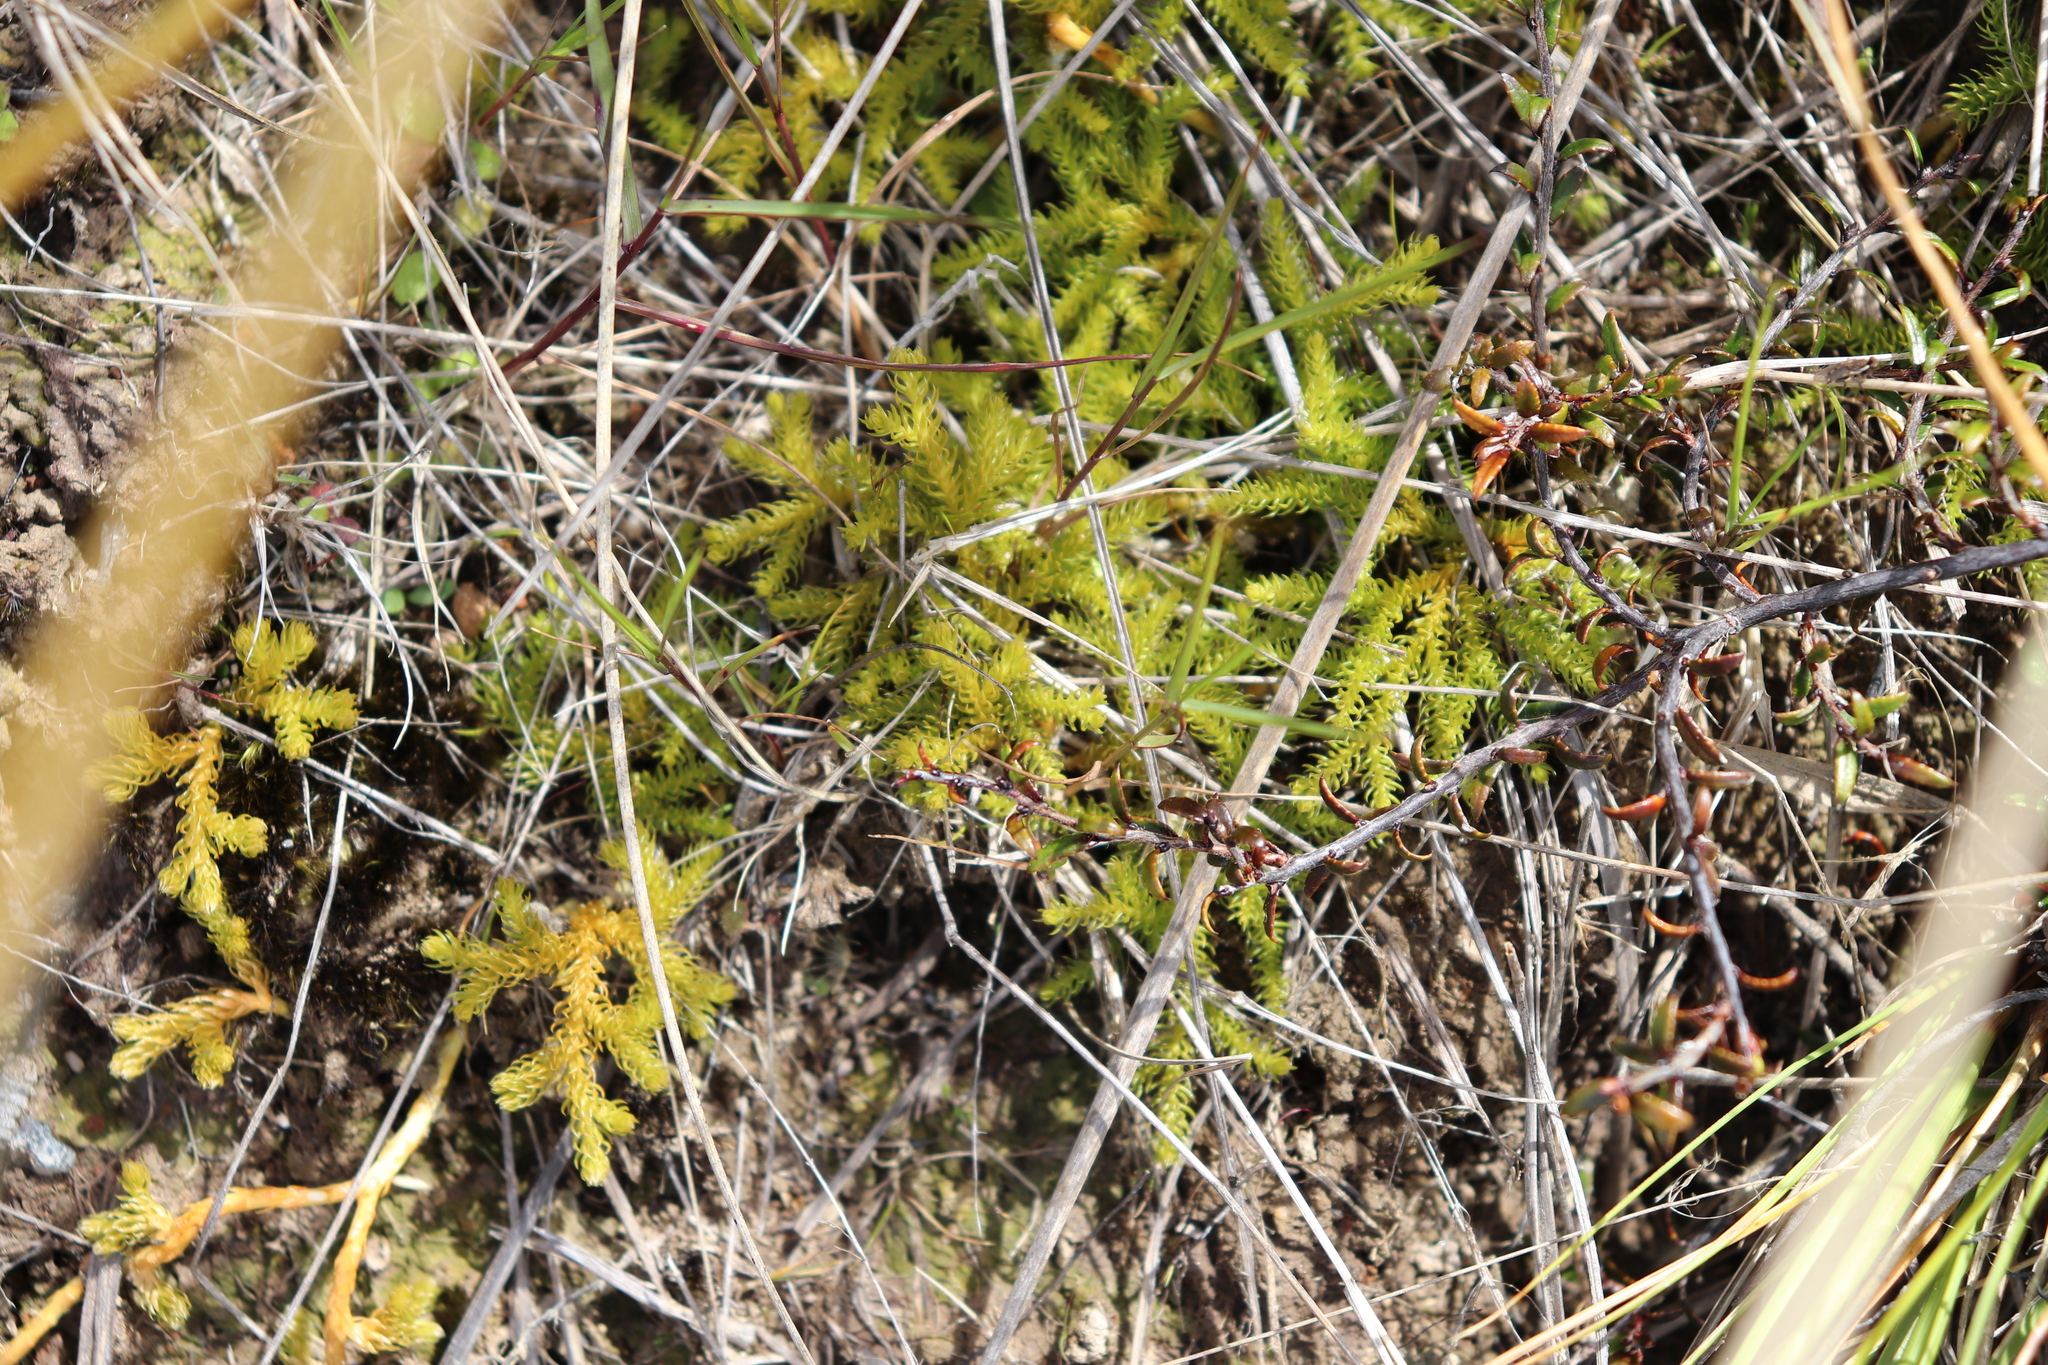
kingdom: Plantae
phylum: Tracheophyta
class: Lycopodiopsida
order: Lycopodiales
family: Lycopodiaceae
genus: Austrolycopodium
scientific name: Austrolycopodium fastigiatum
